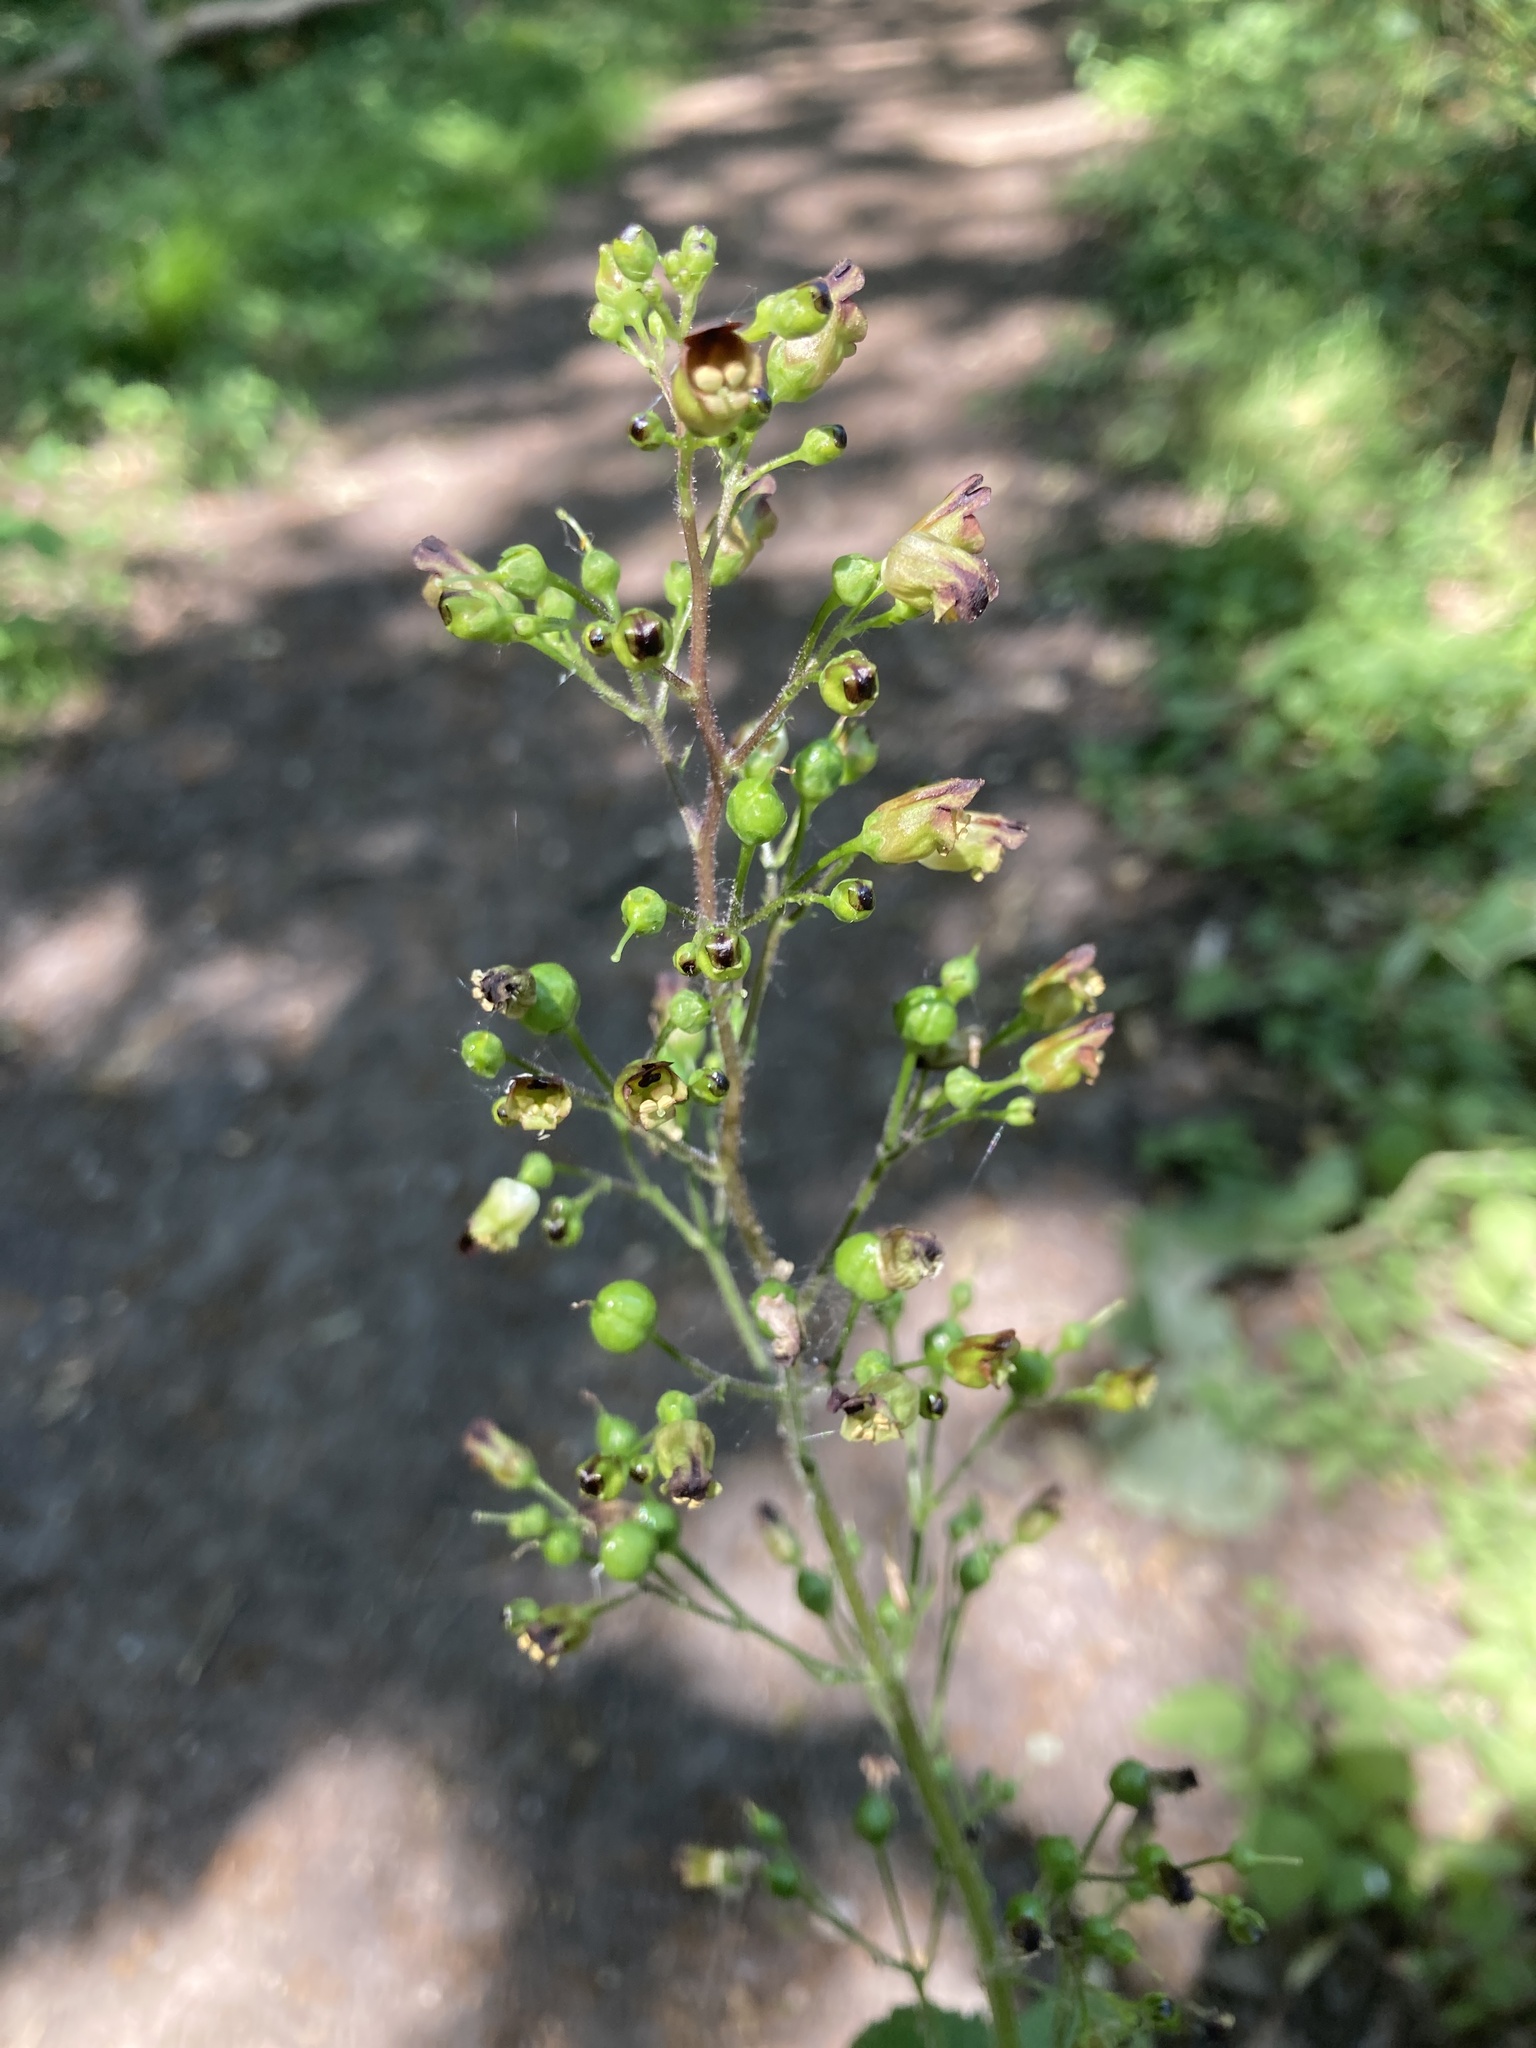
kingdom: Plantae
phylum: Tracheophyta
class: Magnoliopsida
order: Lamiales
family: Scrophulariaceae
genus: Scrophularia
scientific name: Scrophularia nodosa
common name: Common figwort
